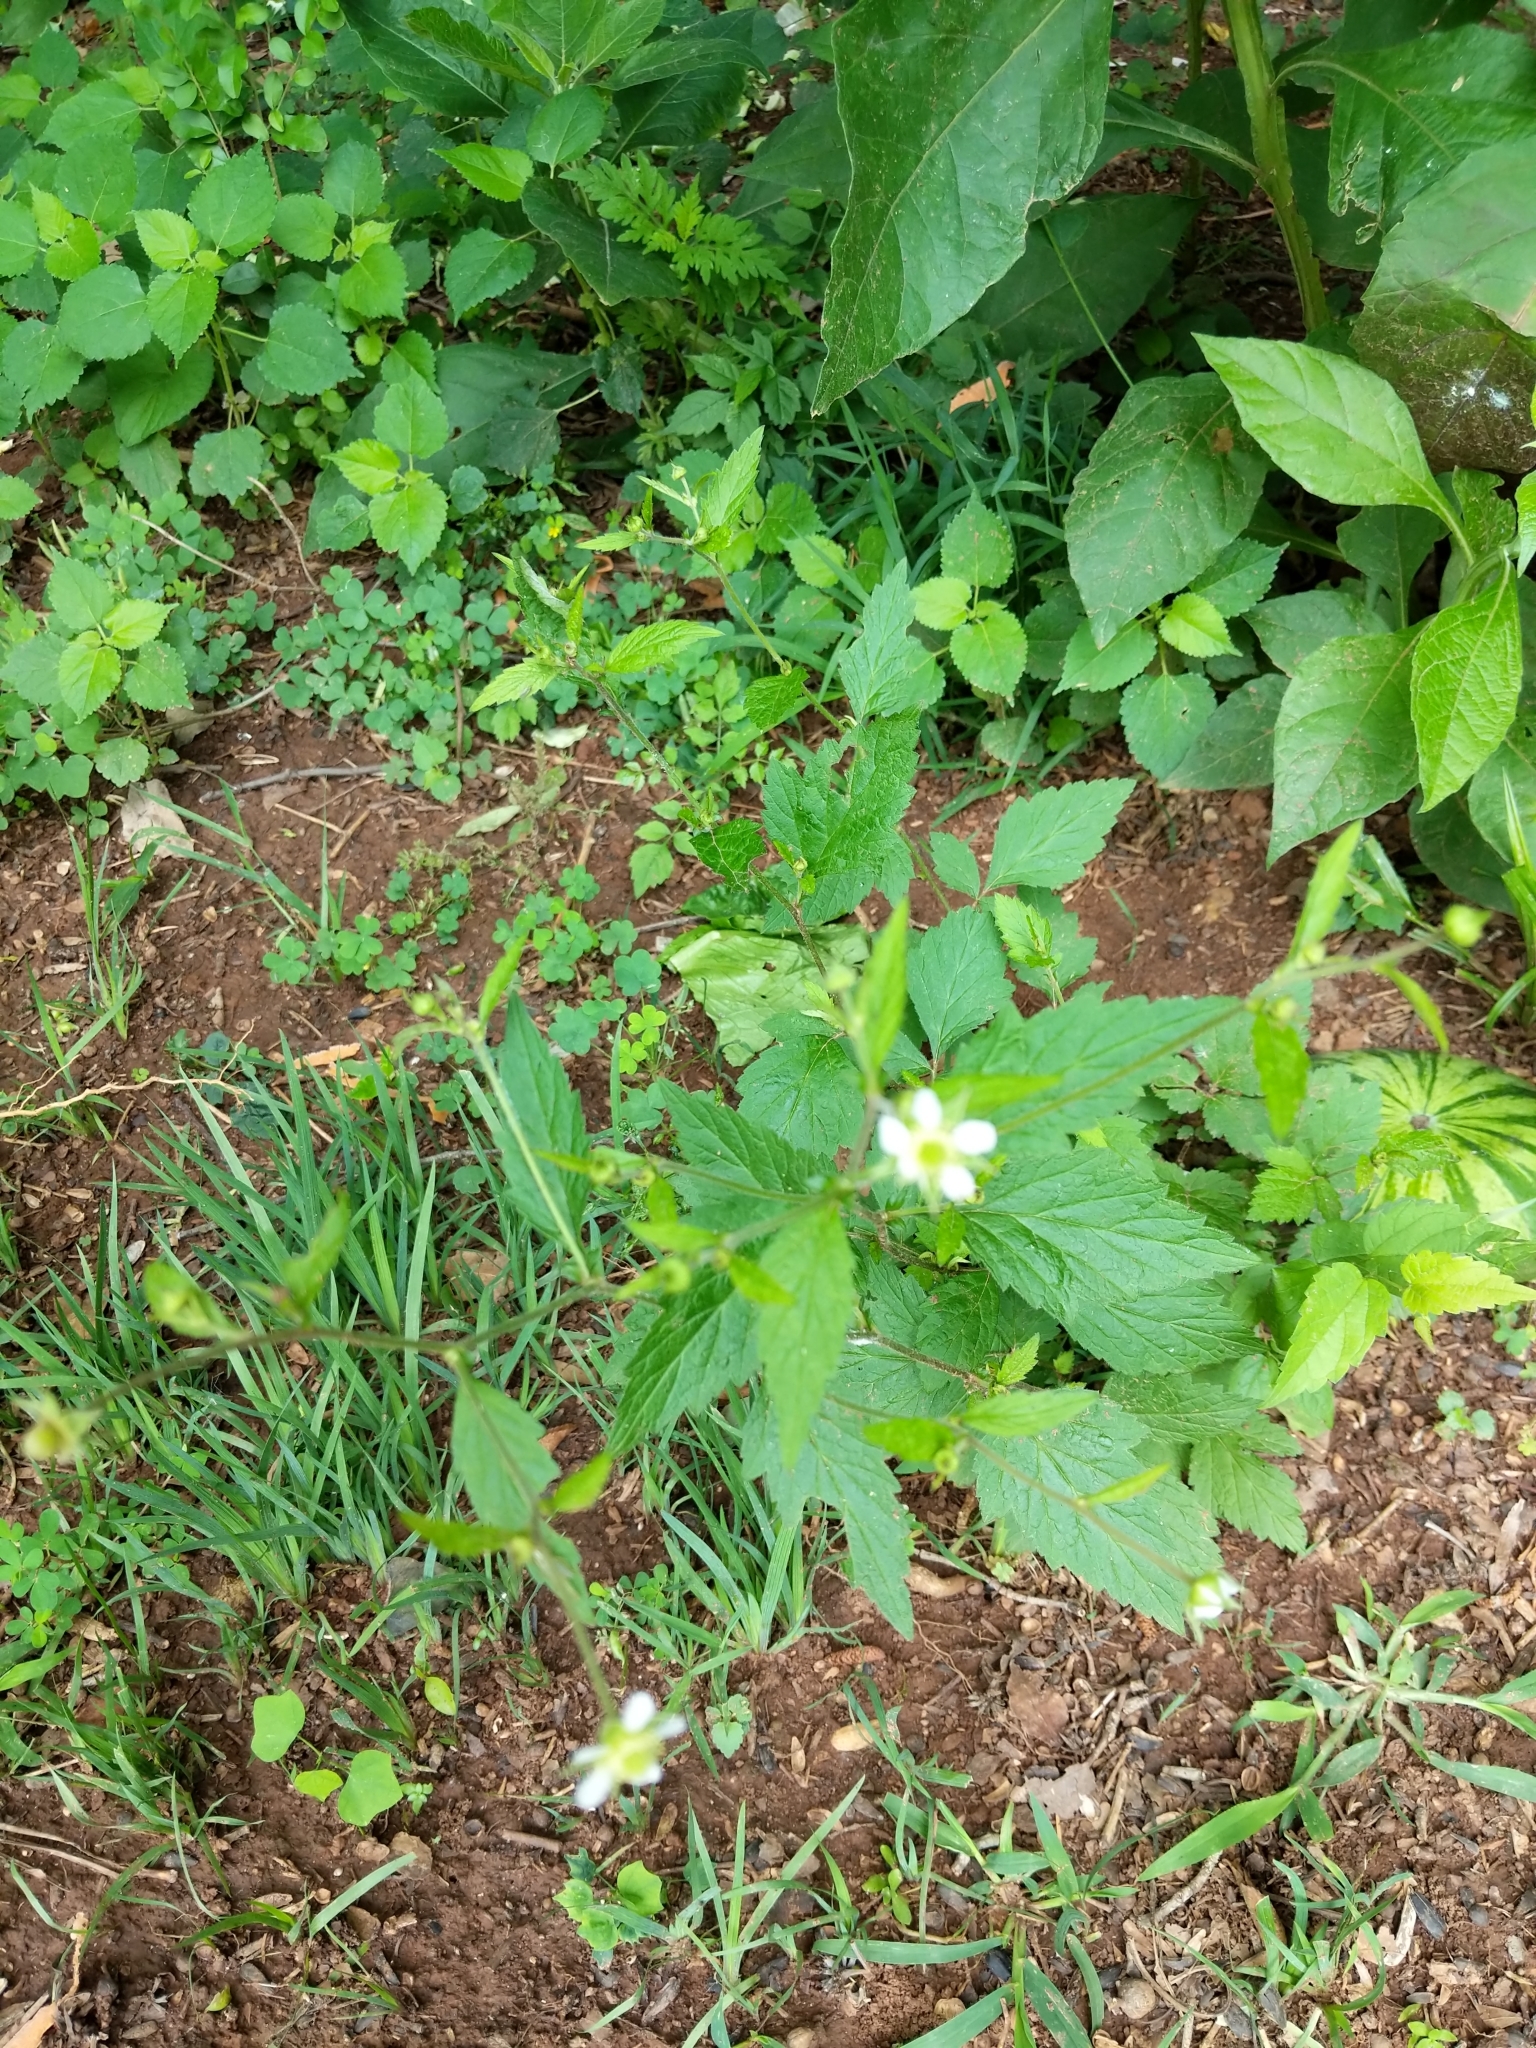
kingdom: Plantae
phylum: Tracheophyta
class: Magnoliopsida
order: Rosales
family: Rosaceae
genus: Geum
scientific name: Geum canadense
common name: White avens
